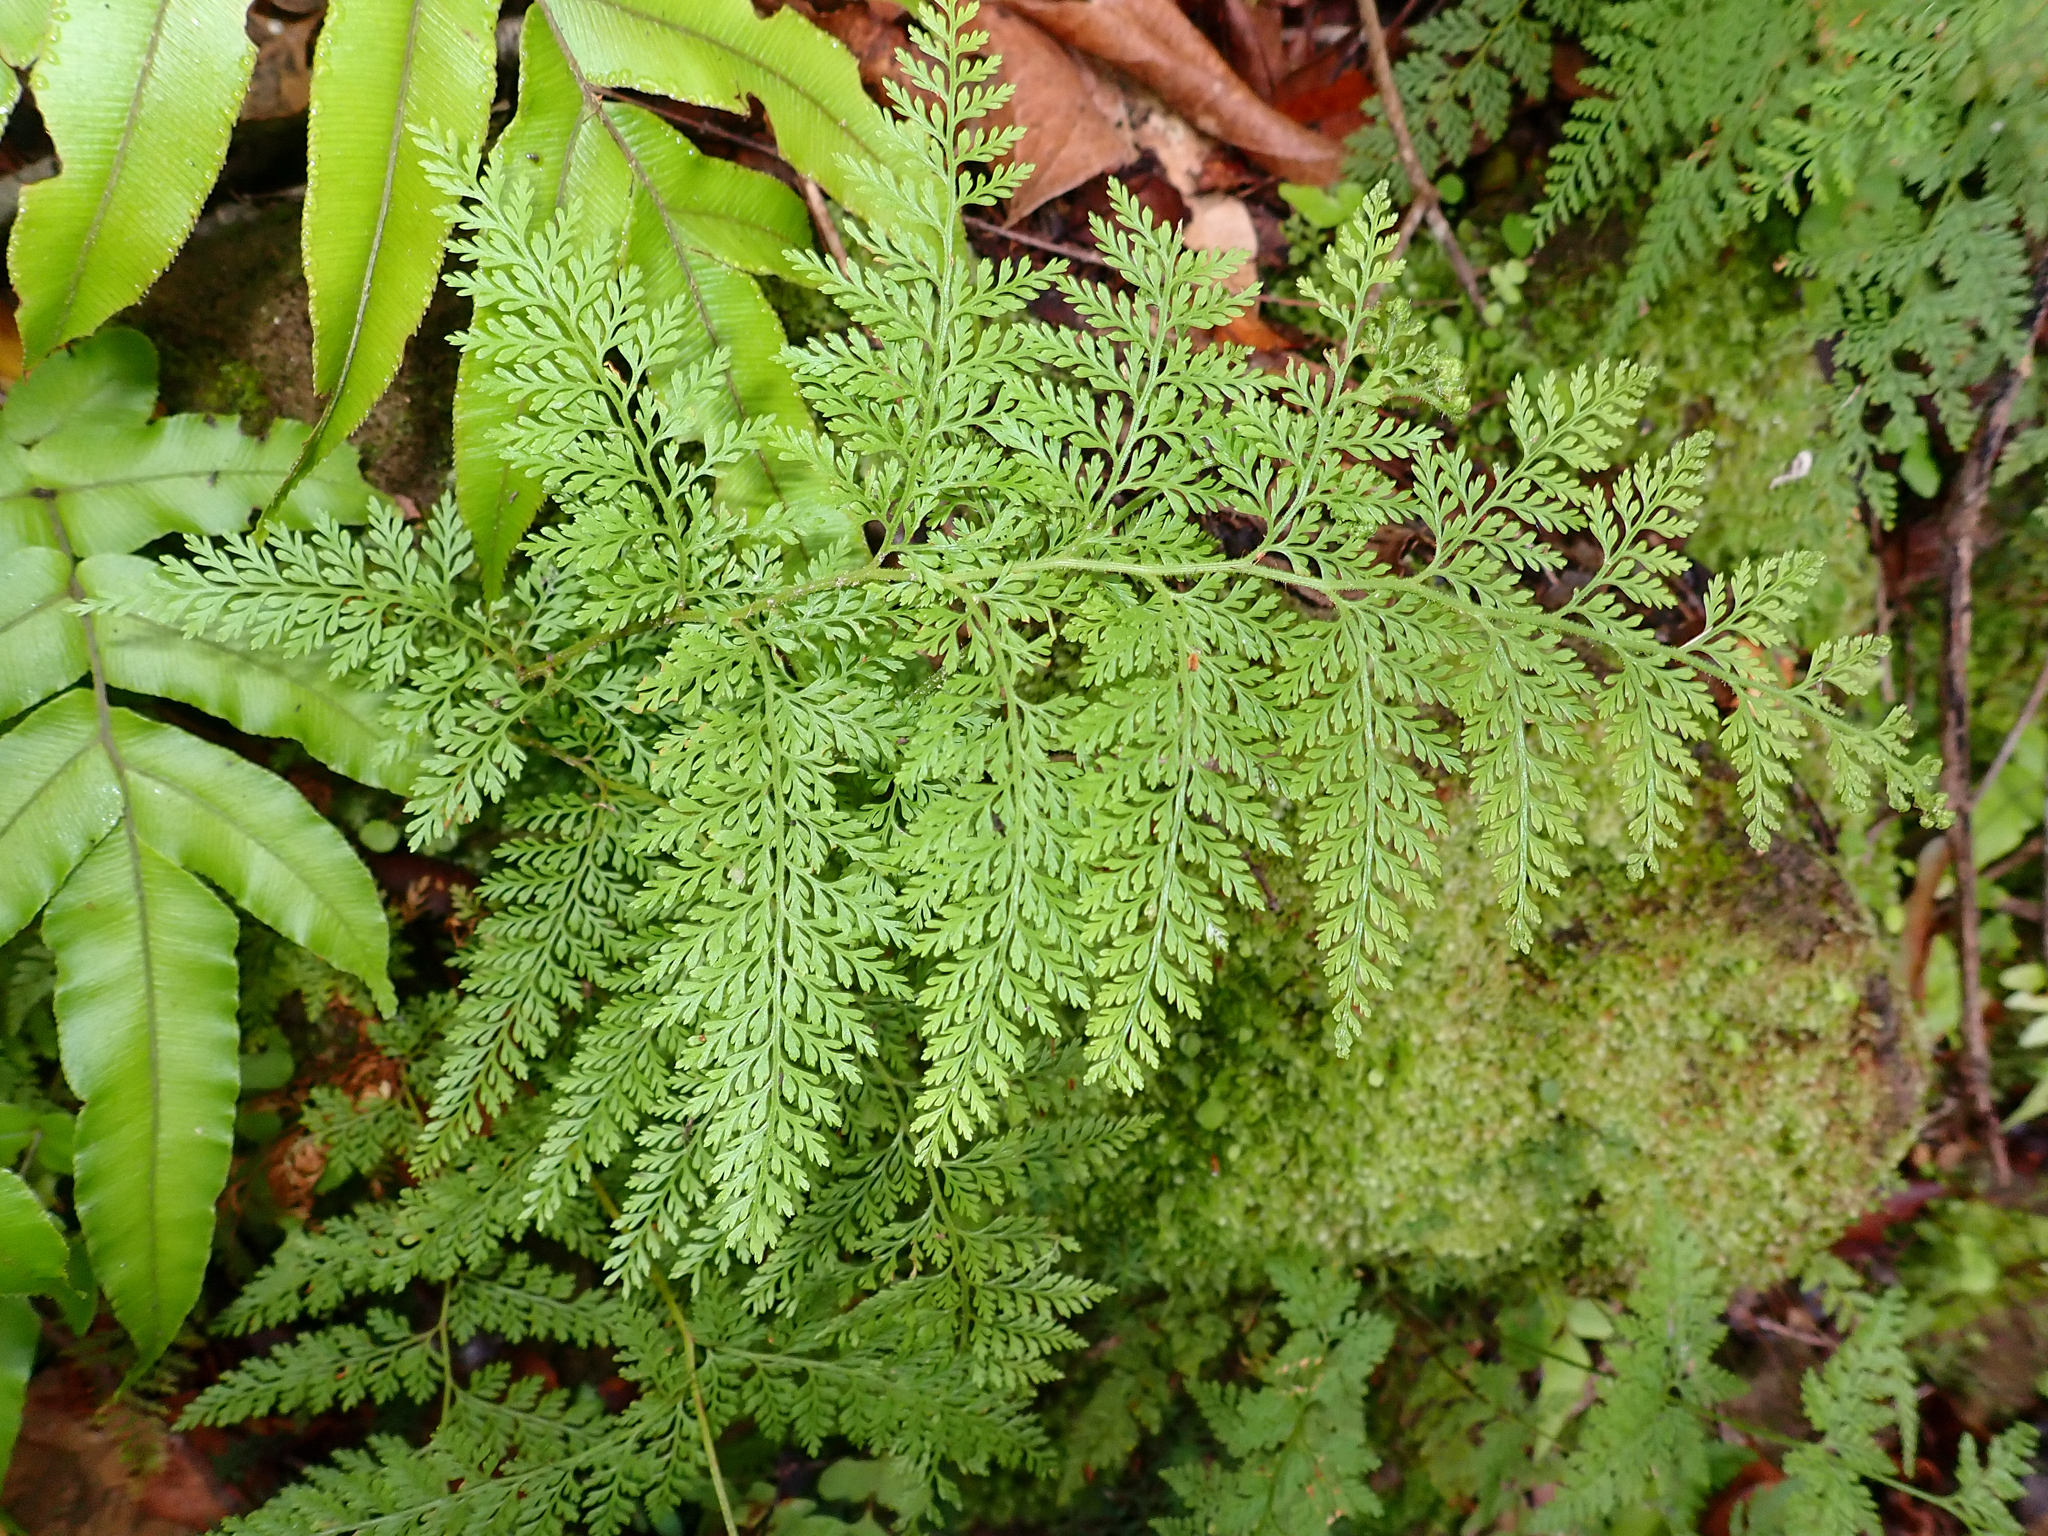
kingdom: Plantae
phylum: Tracheophyta
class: Polypodiopsida
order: Polypodiales
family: Dennstaedtiaceae
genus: Paesia
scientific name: Paesia scaberula
